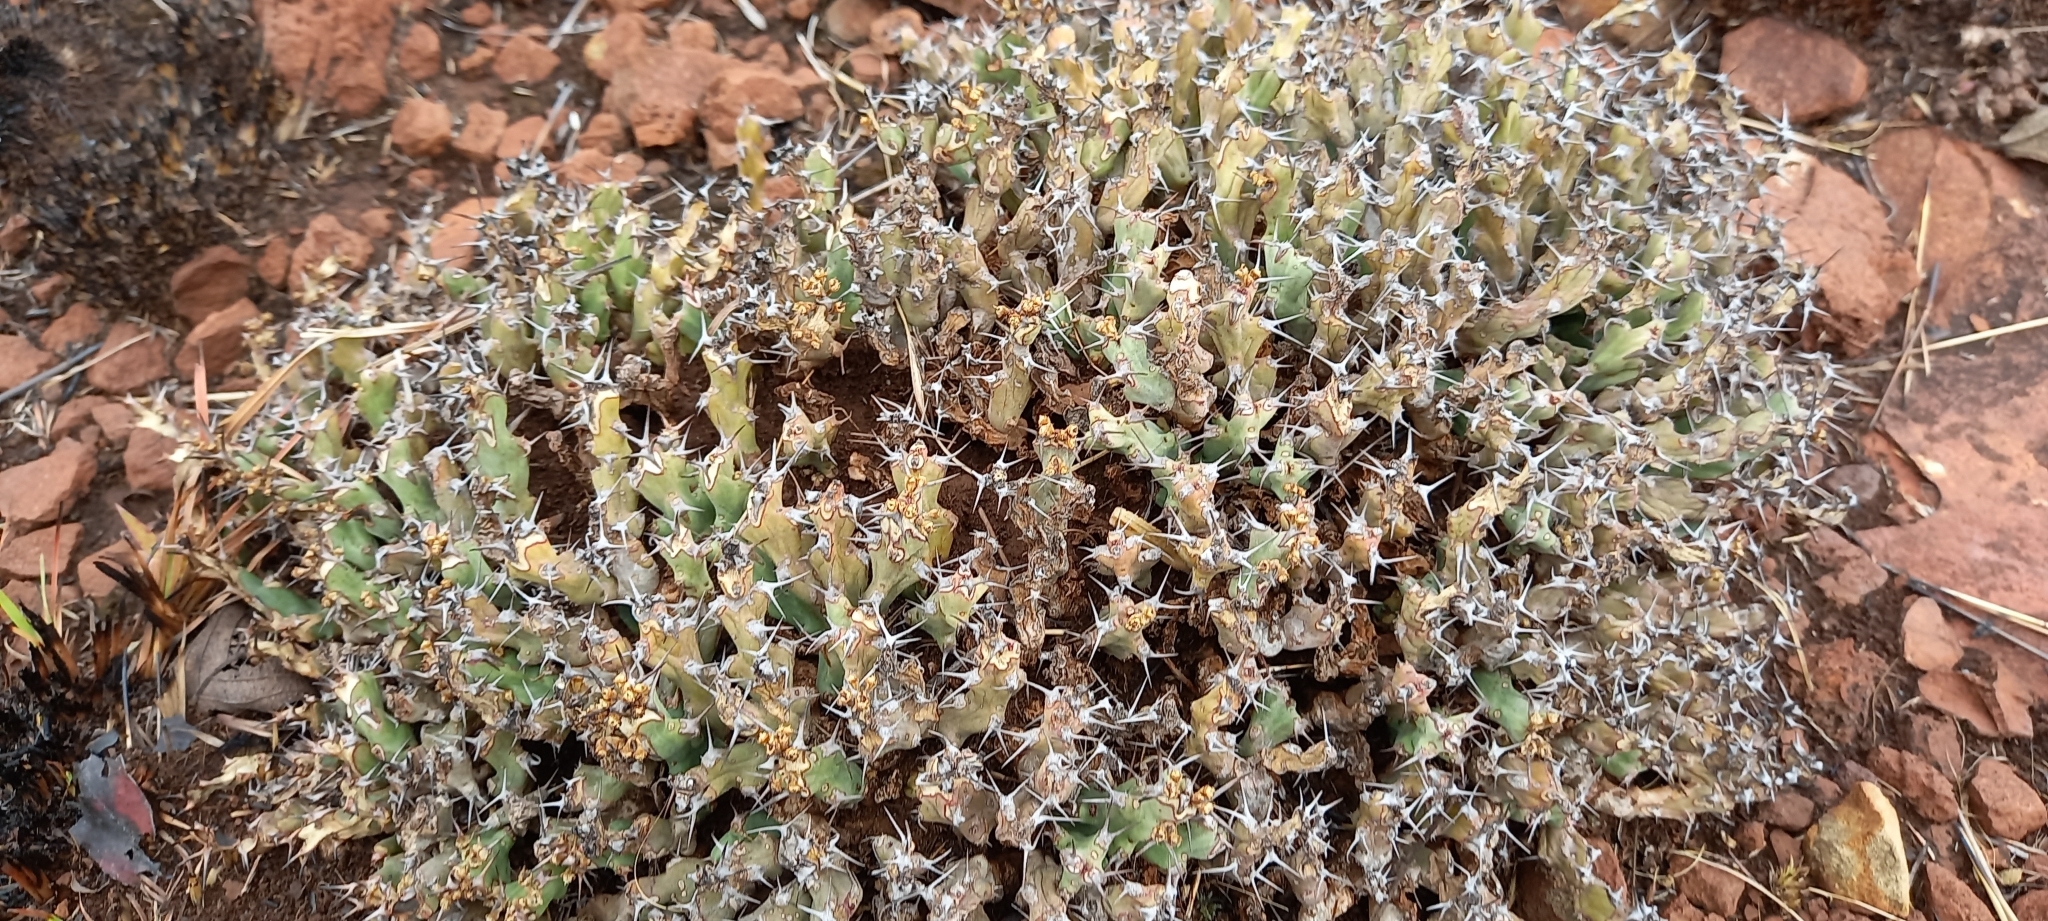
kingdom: Plantae
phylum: Tracheophyta
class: Magnoliopsida
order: Malpighiales
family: Euphorbiaceae
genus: Euphorbia
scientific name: Euphorbia acervata
